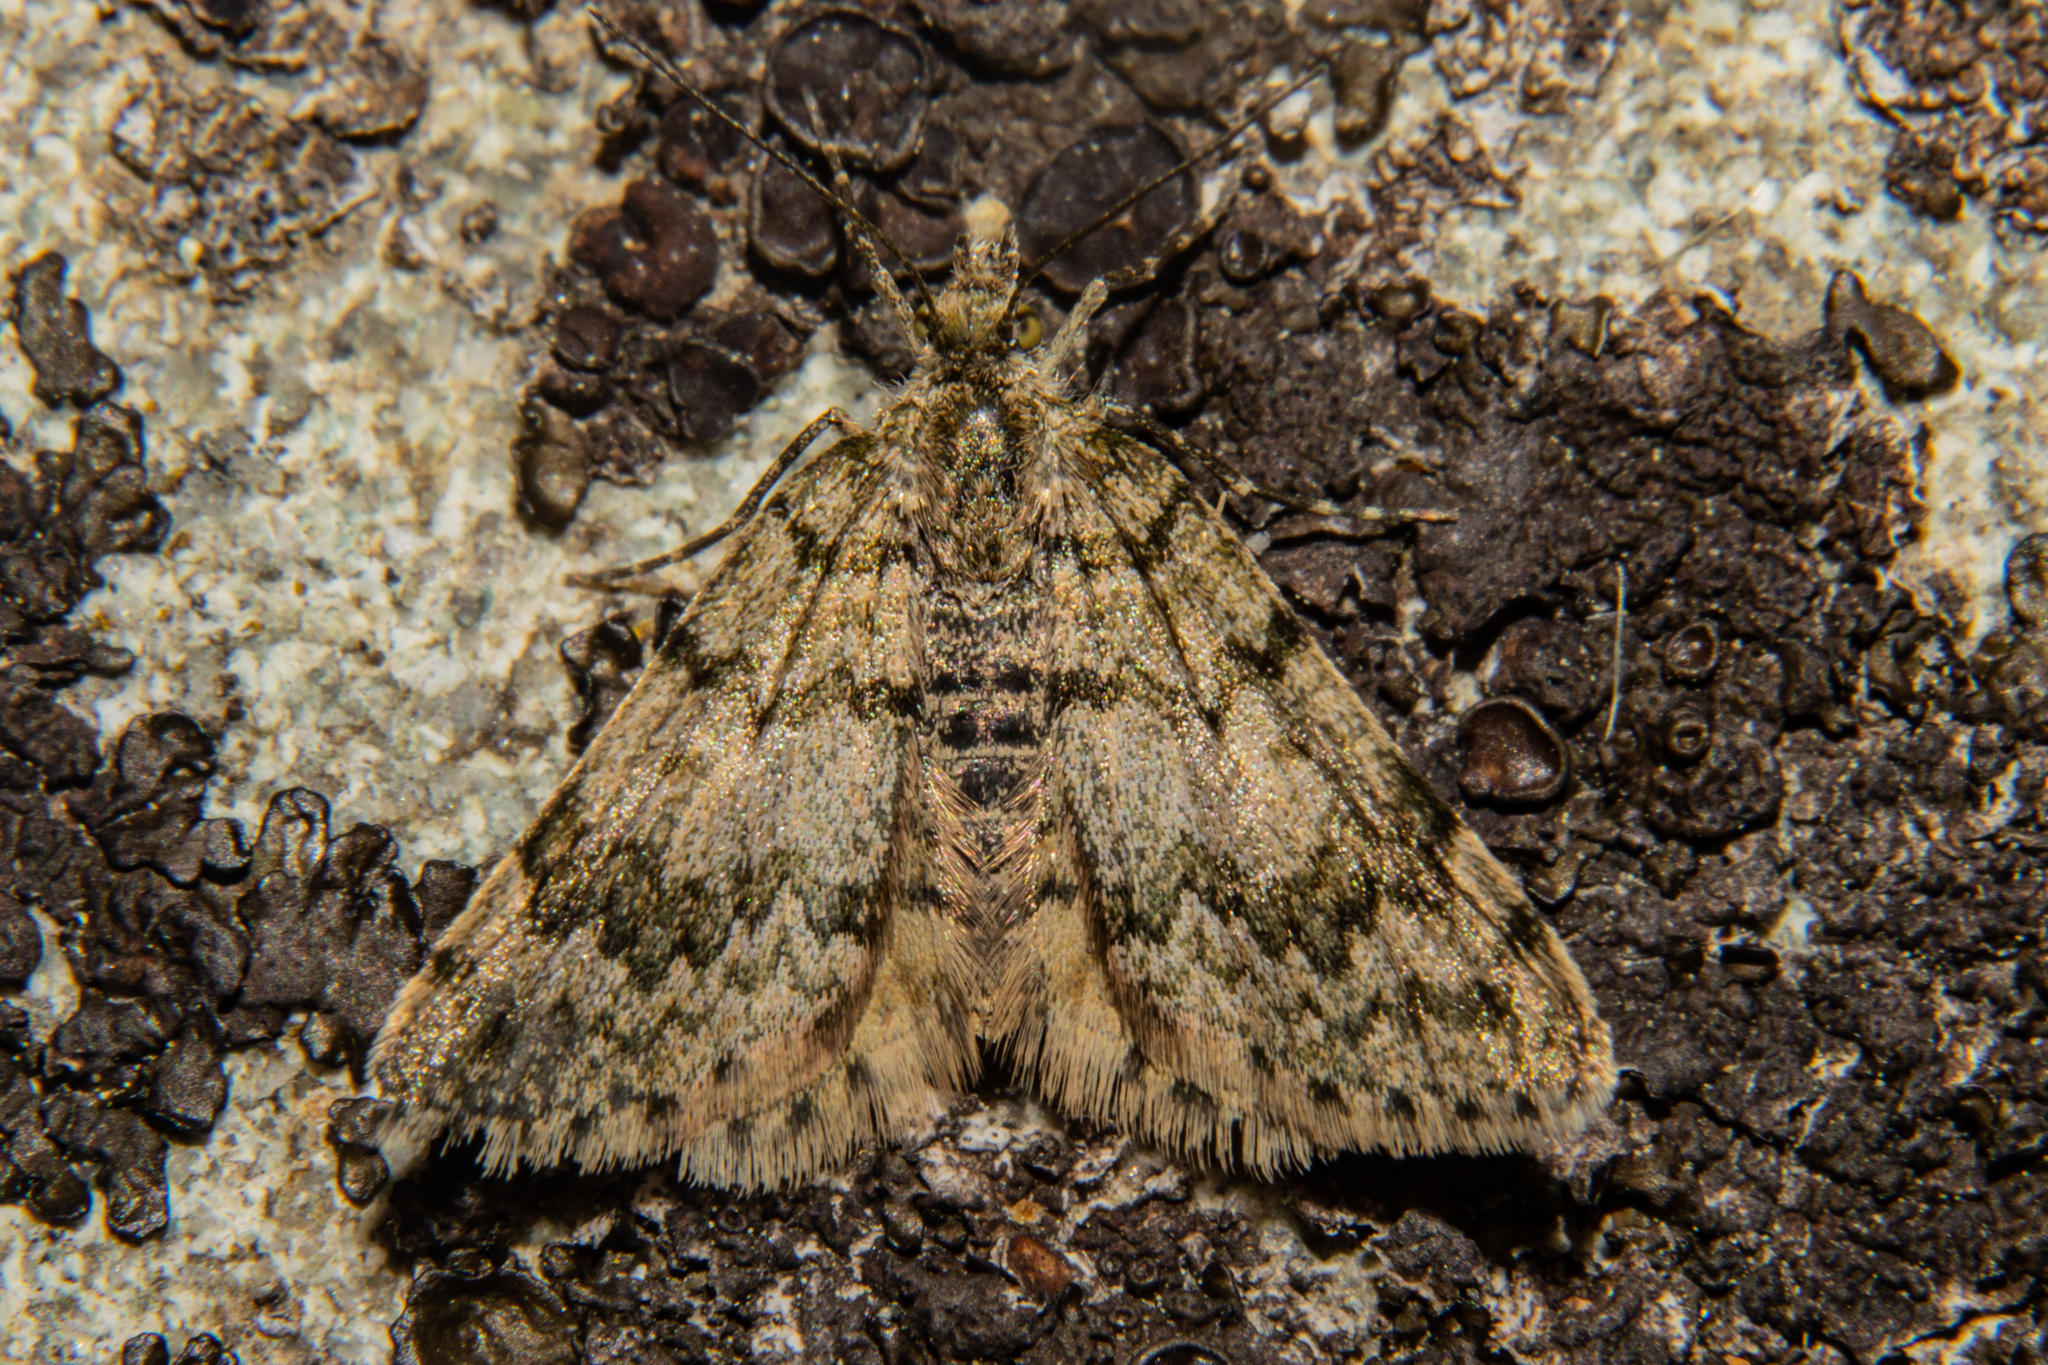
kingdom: Animalia
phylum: Arthropoda
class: Insecta
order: Lepidoptera
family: Geometridae
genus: Paranotoreas
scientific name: Paranotoreas fulva
